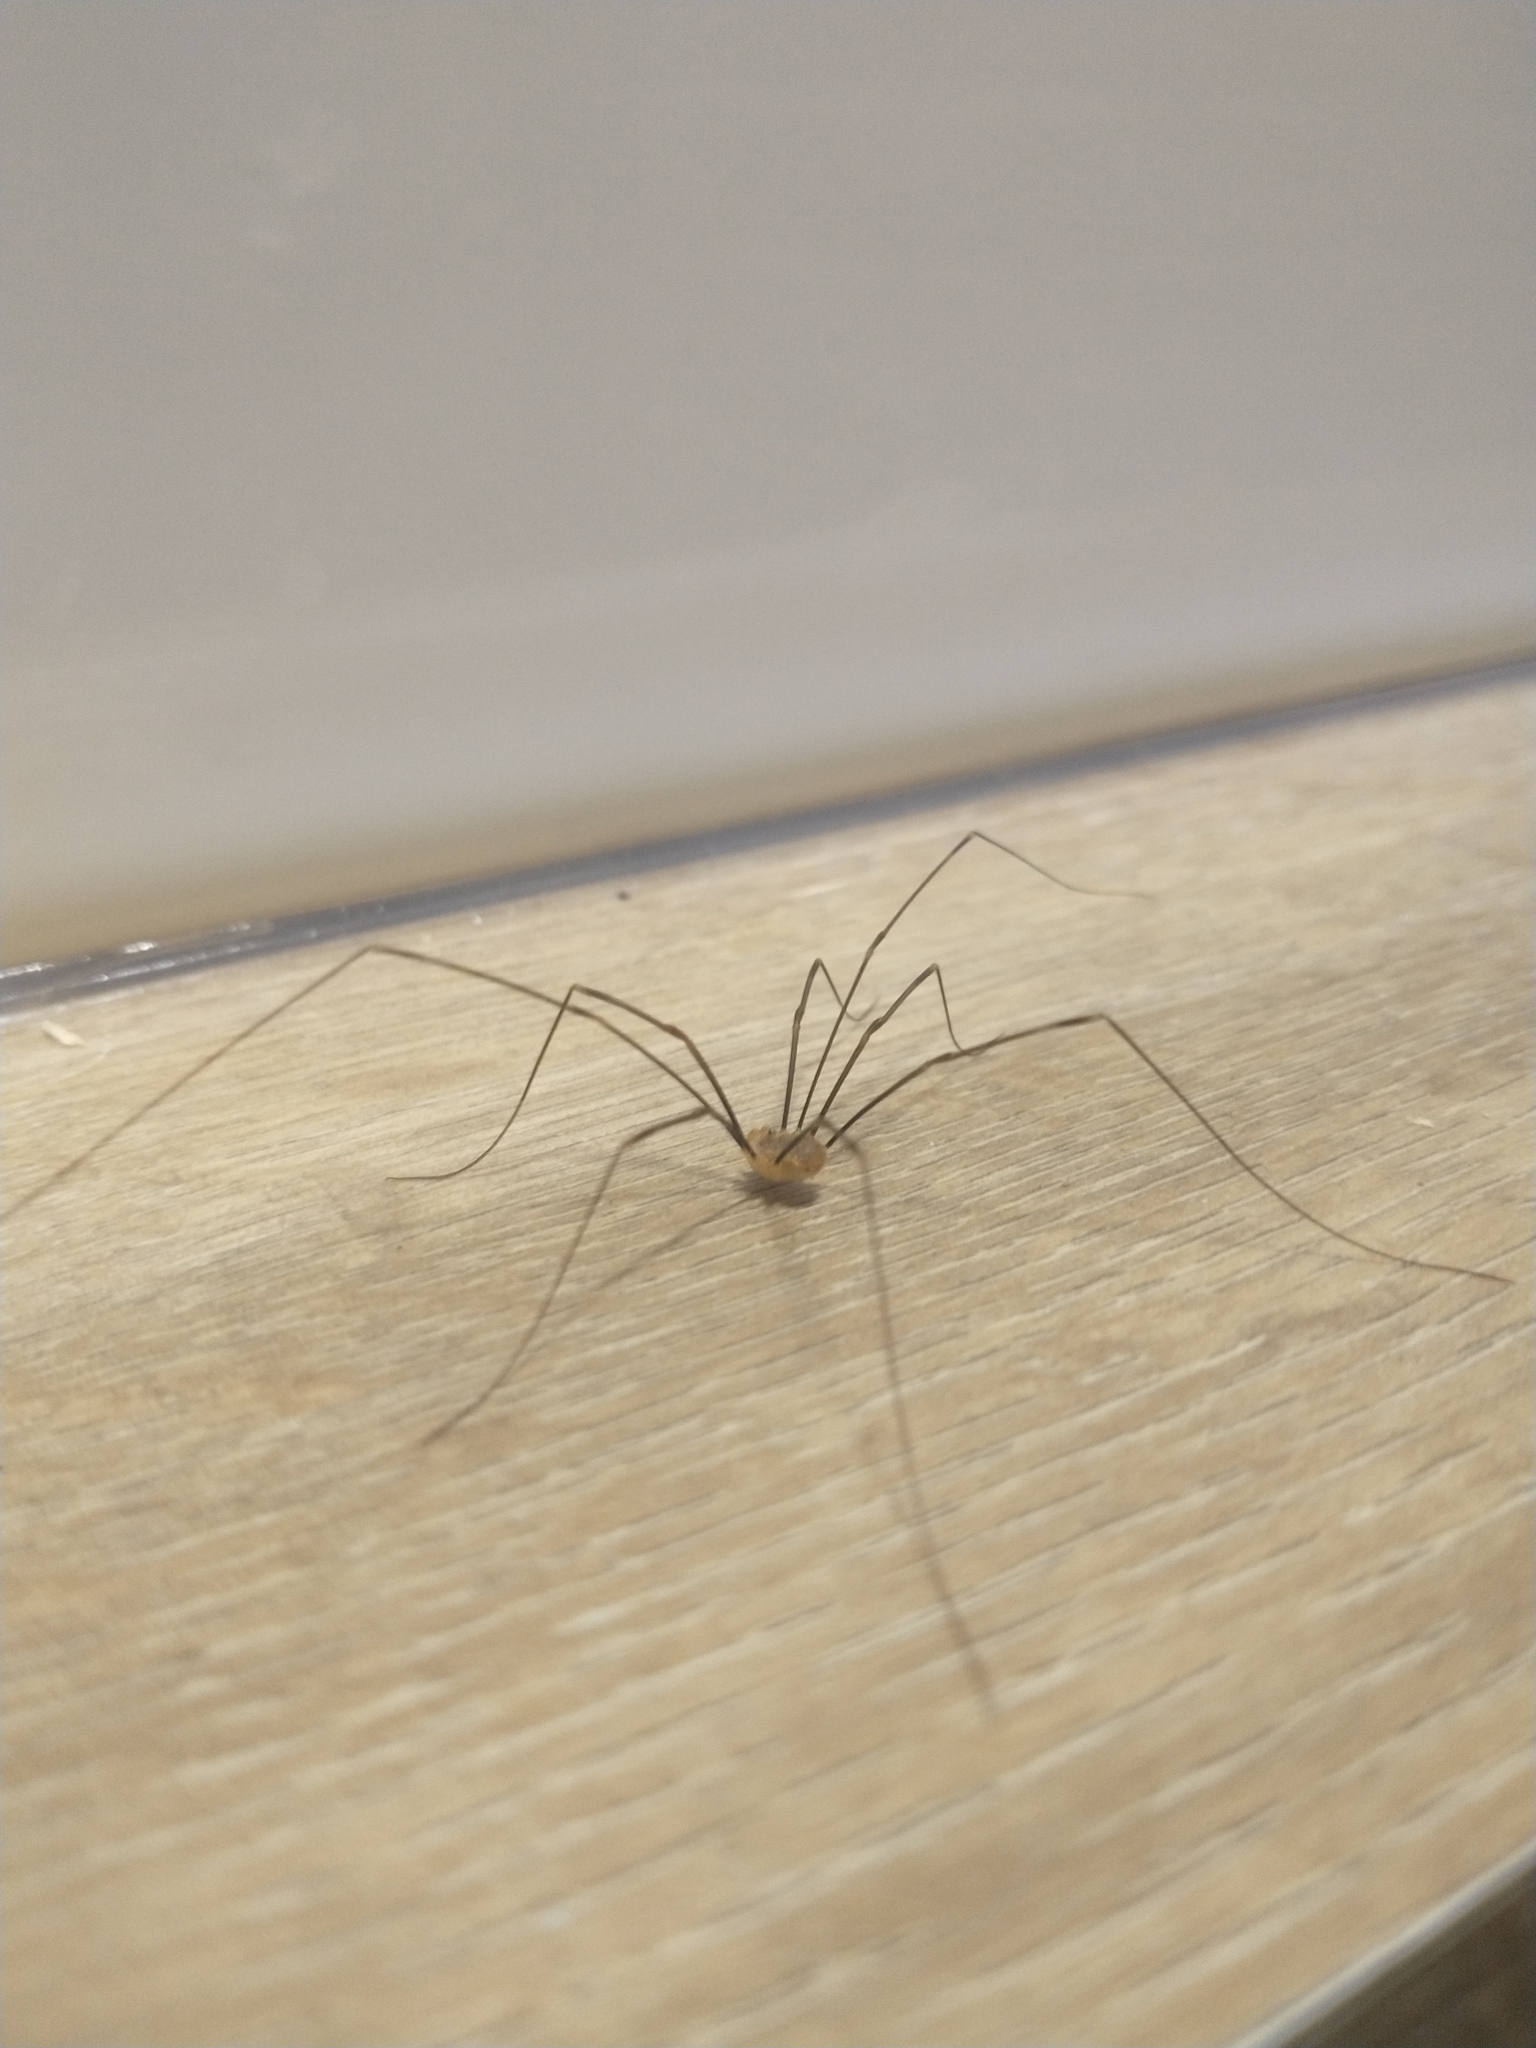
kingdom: Animalia
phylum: Arthropoda
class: Arachnida
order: Opiliones
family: Phalangiidae
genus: Opilio
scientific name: Opilio canestrinii
